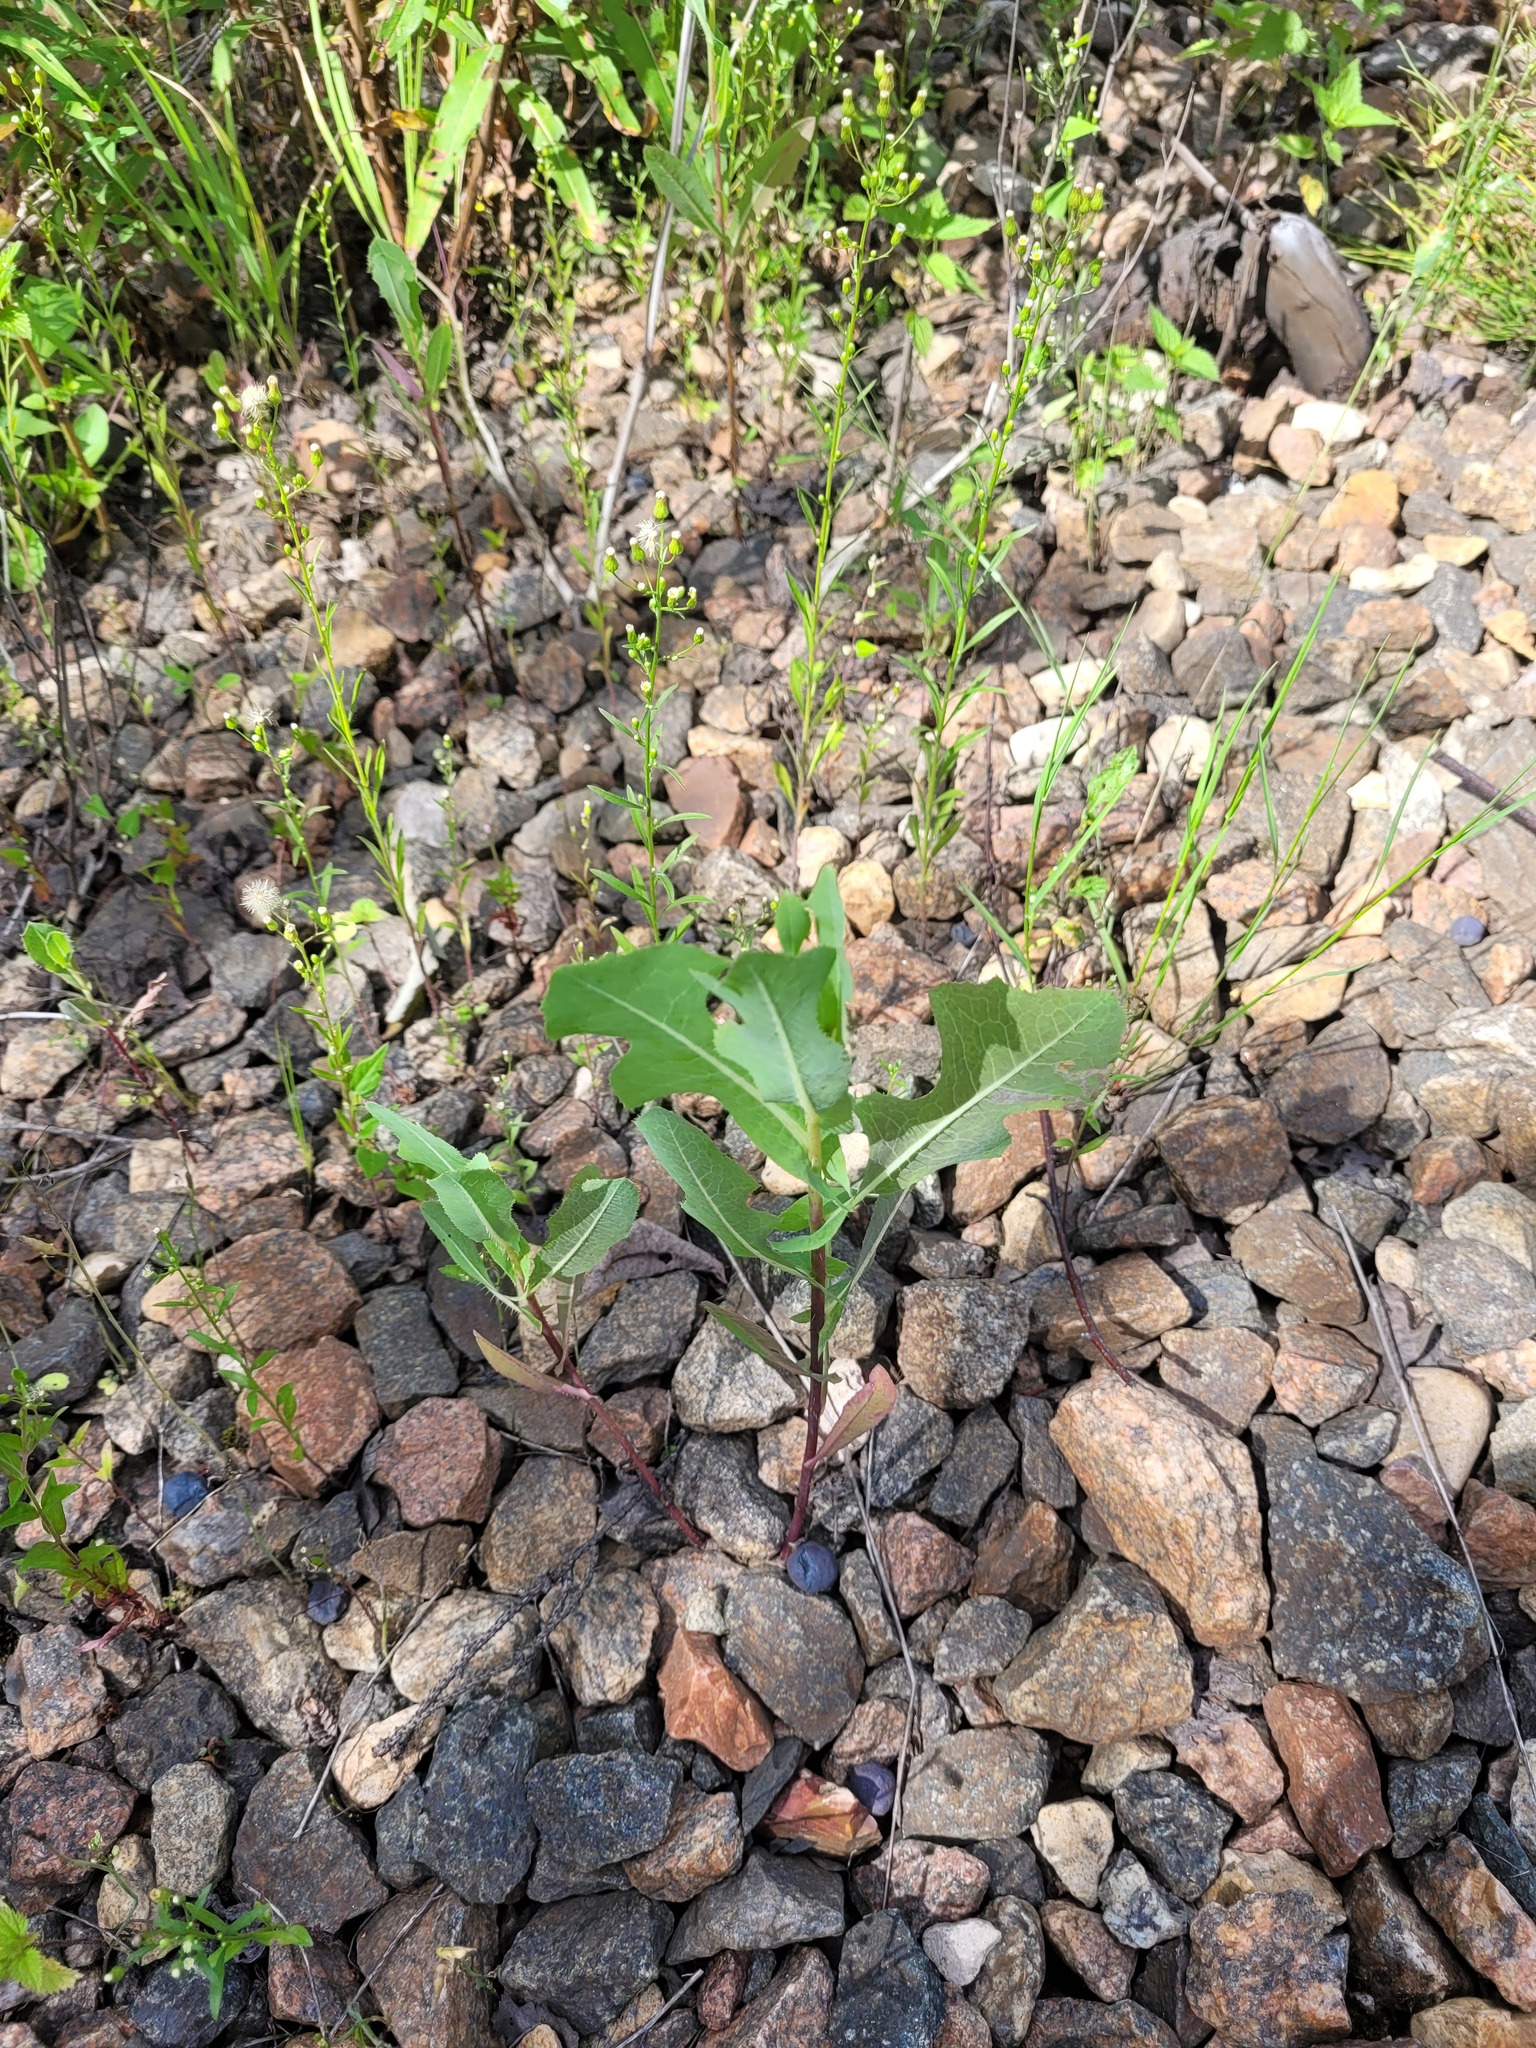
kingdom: Plantae
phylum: Tracheophyta
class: Magnoliopsida
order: Asterales
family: Asteraceae
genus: Lactuca
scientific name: Lactuca serriola
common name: Prickly lettuce
